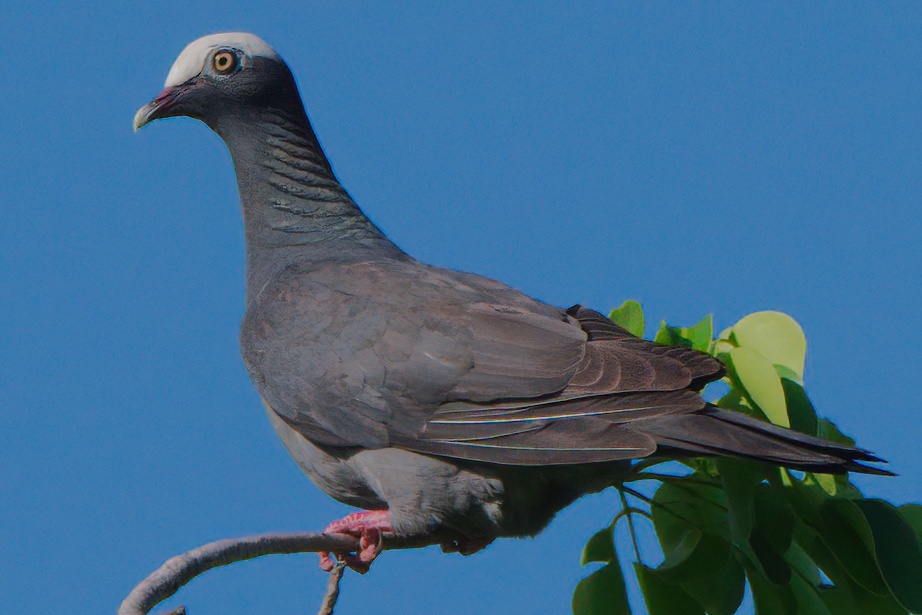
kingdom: Animalia
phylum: Chordata
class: Aves
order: Columbiformes
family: Columbidae
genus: Patagioenas
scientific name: Patagioenas leucocephala
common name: White-crowned pigeon
